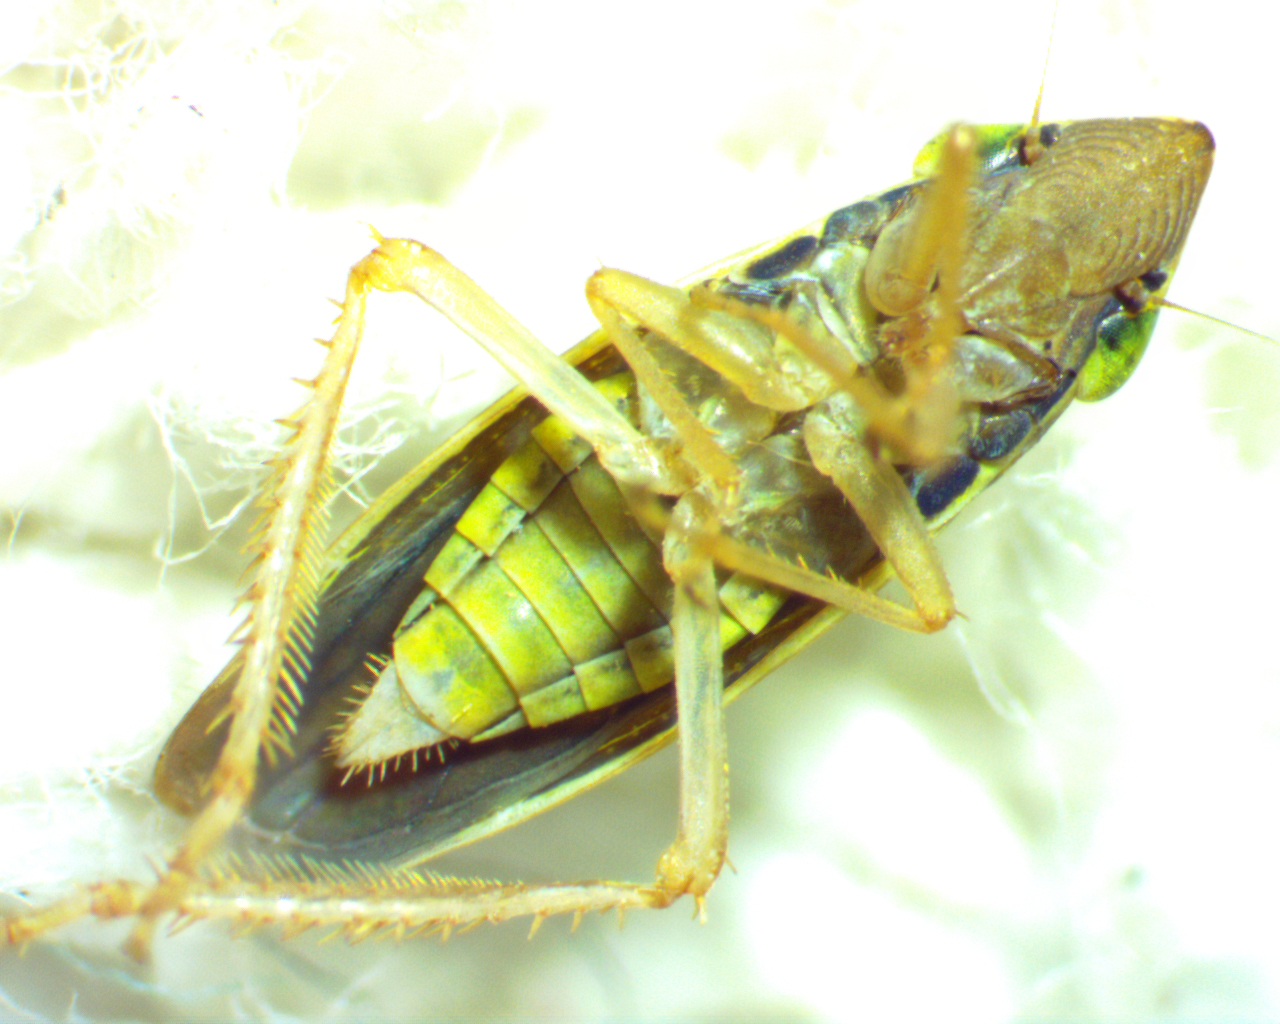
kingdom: Animalia
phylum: Arthropoda
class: Insecta
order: Hemiptera
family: Cicadellidae
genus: Draeculacephala
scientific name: Draeculacephala balli
